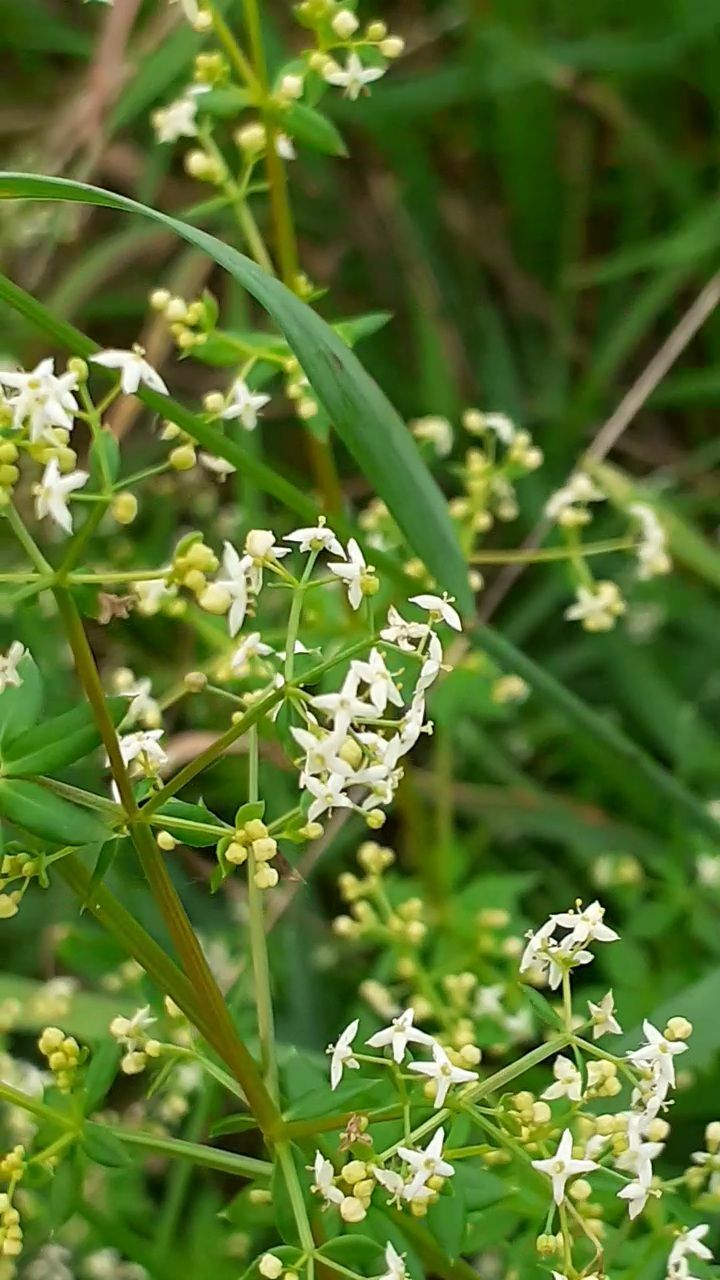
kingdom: Plantae
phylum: Tracheophyta
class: Magnoliopsida
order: Gentianales
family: Rubiaceae
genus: Galium
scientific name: Galium mollugo
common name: Hedge bedstraw
